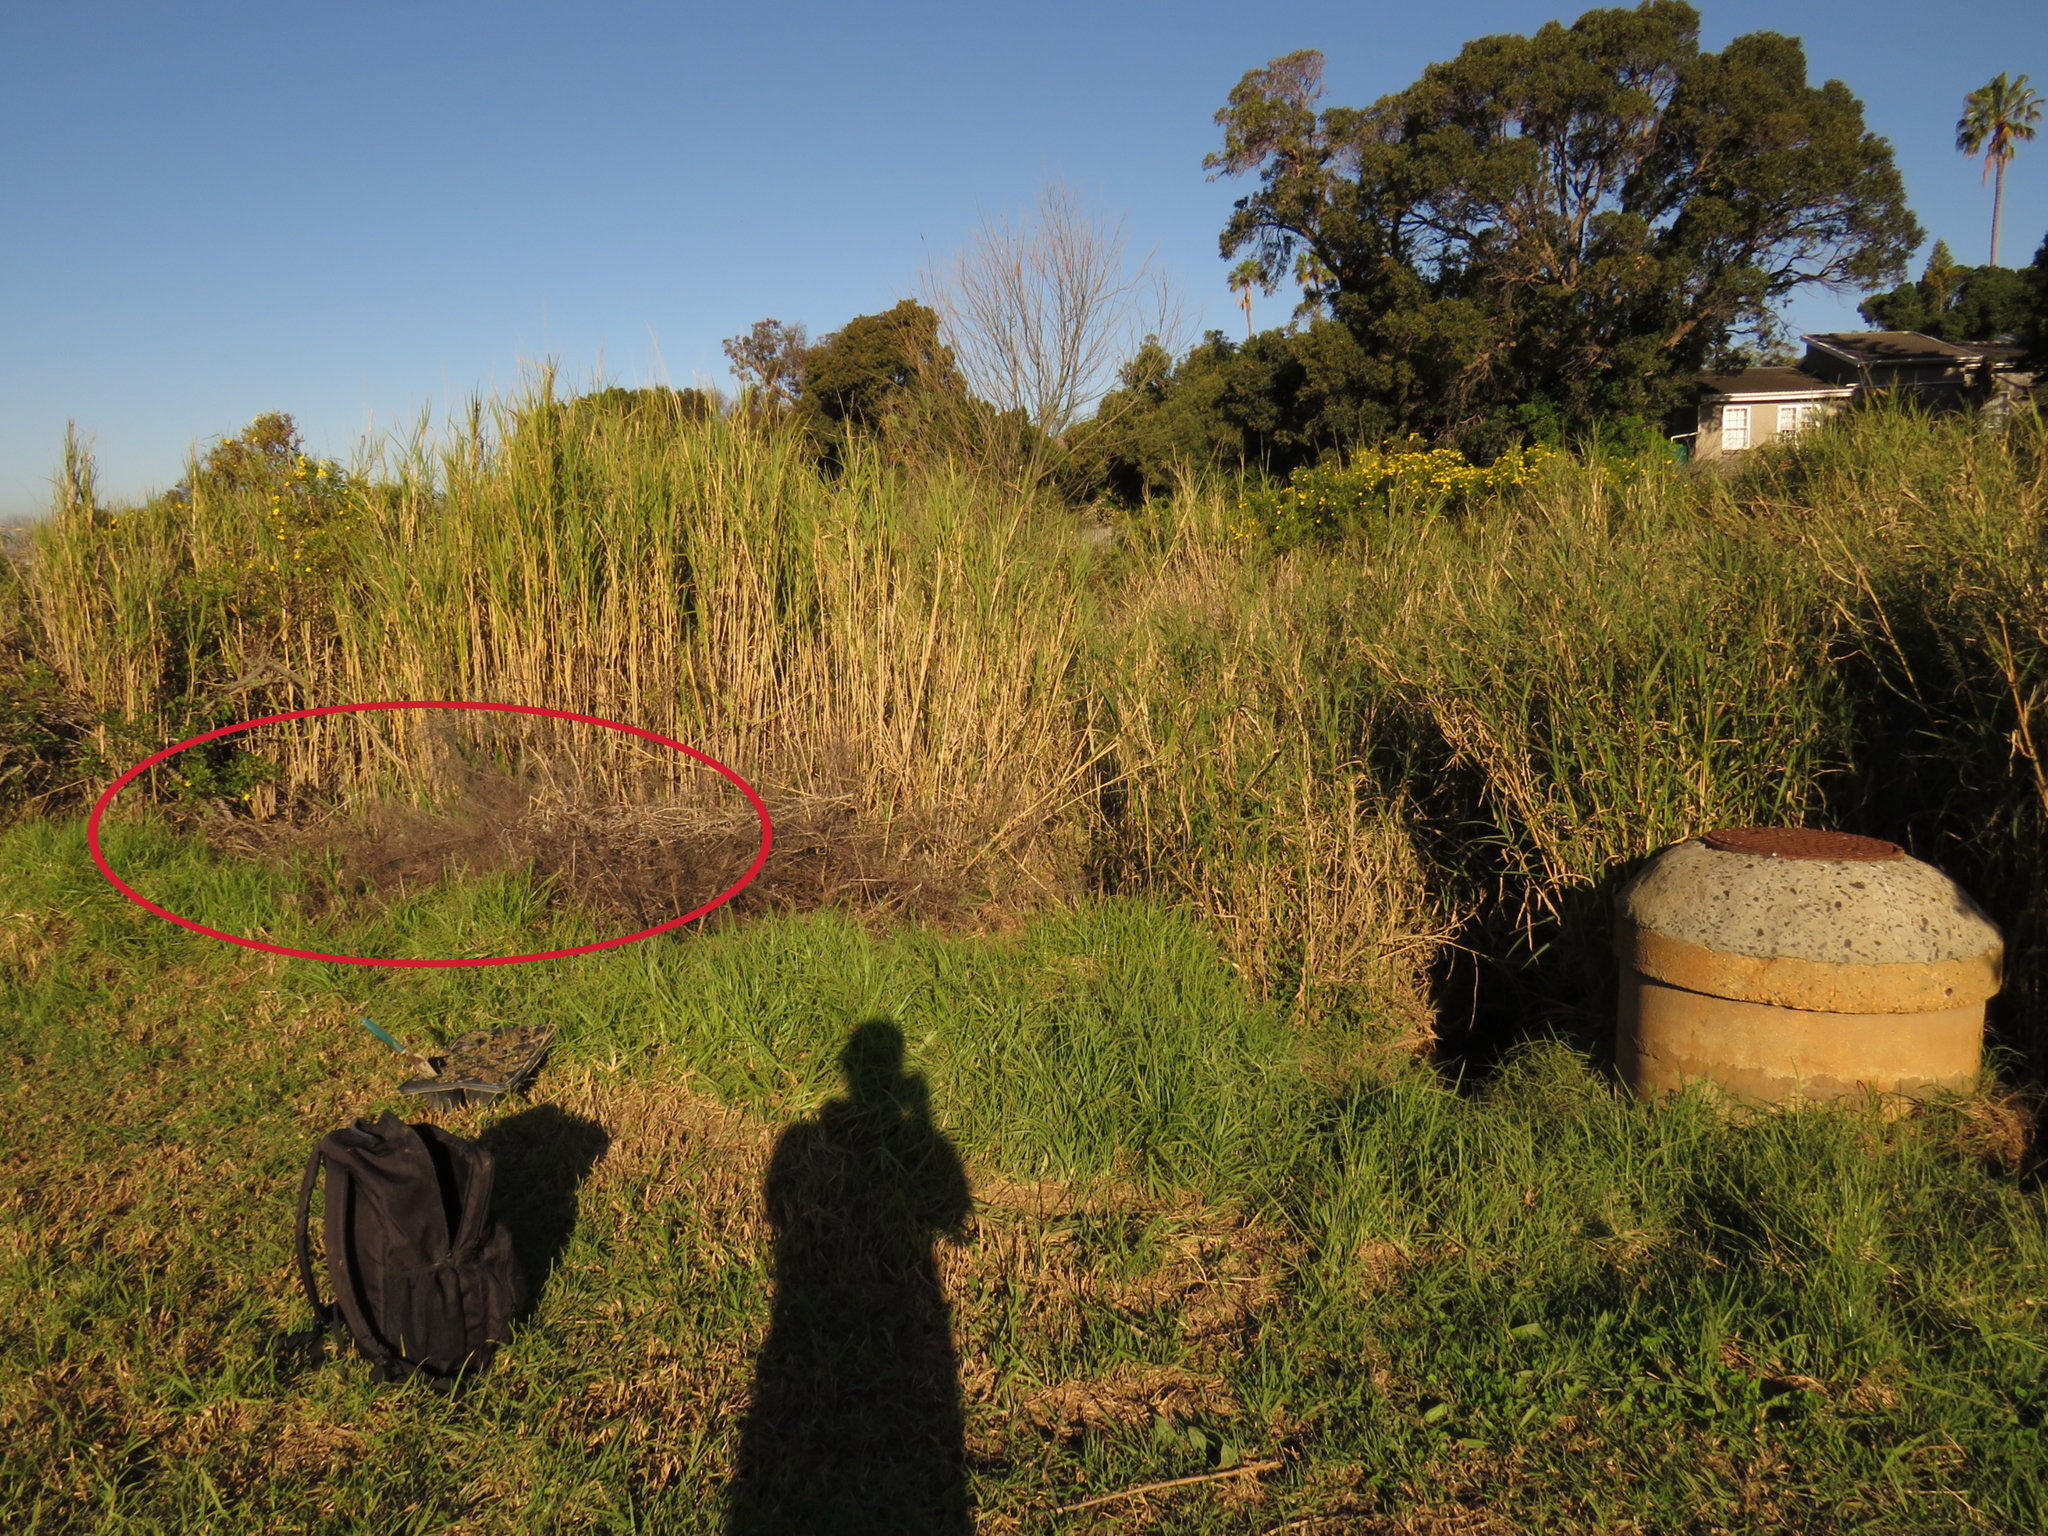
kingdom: Plantae
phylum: Tracheophyta
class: Magnoliopsida
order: Fabales
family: Fabaceae
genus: Psoralea
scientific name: Psoralea fascicularis
